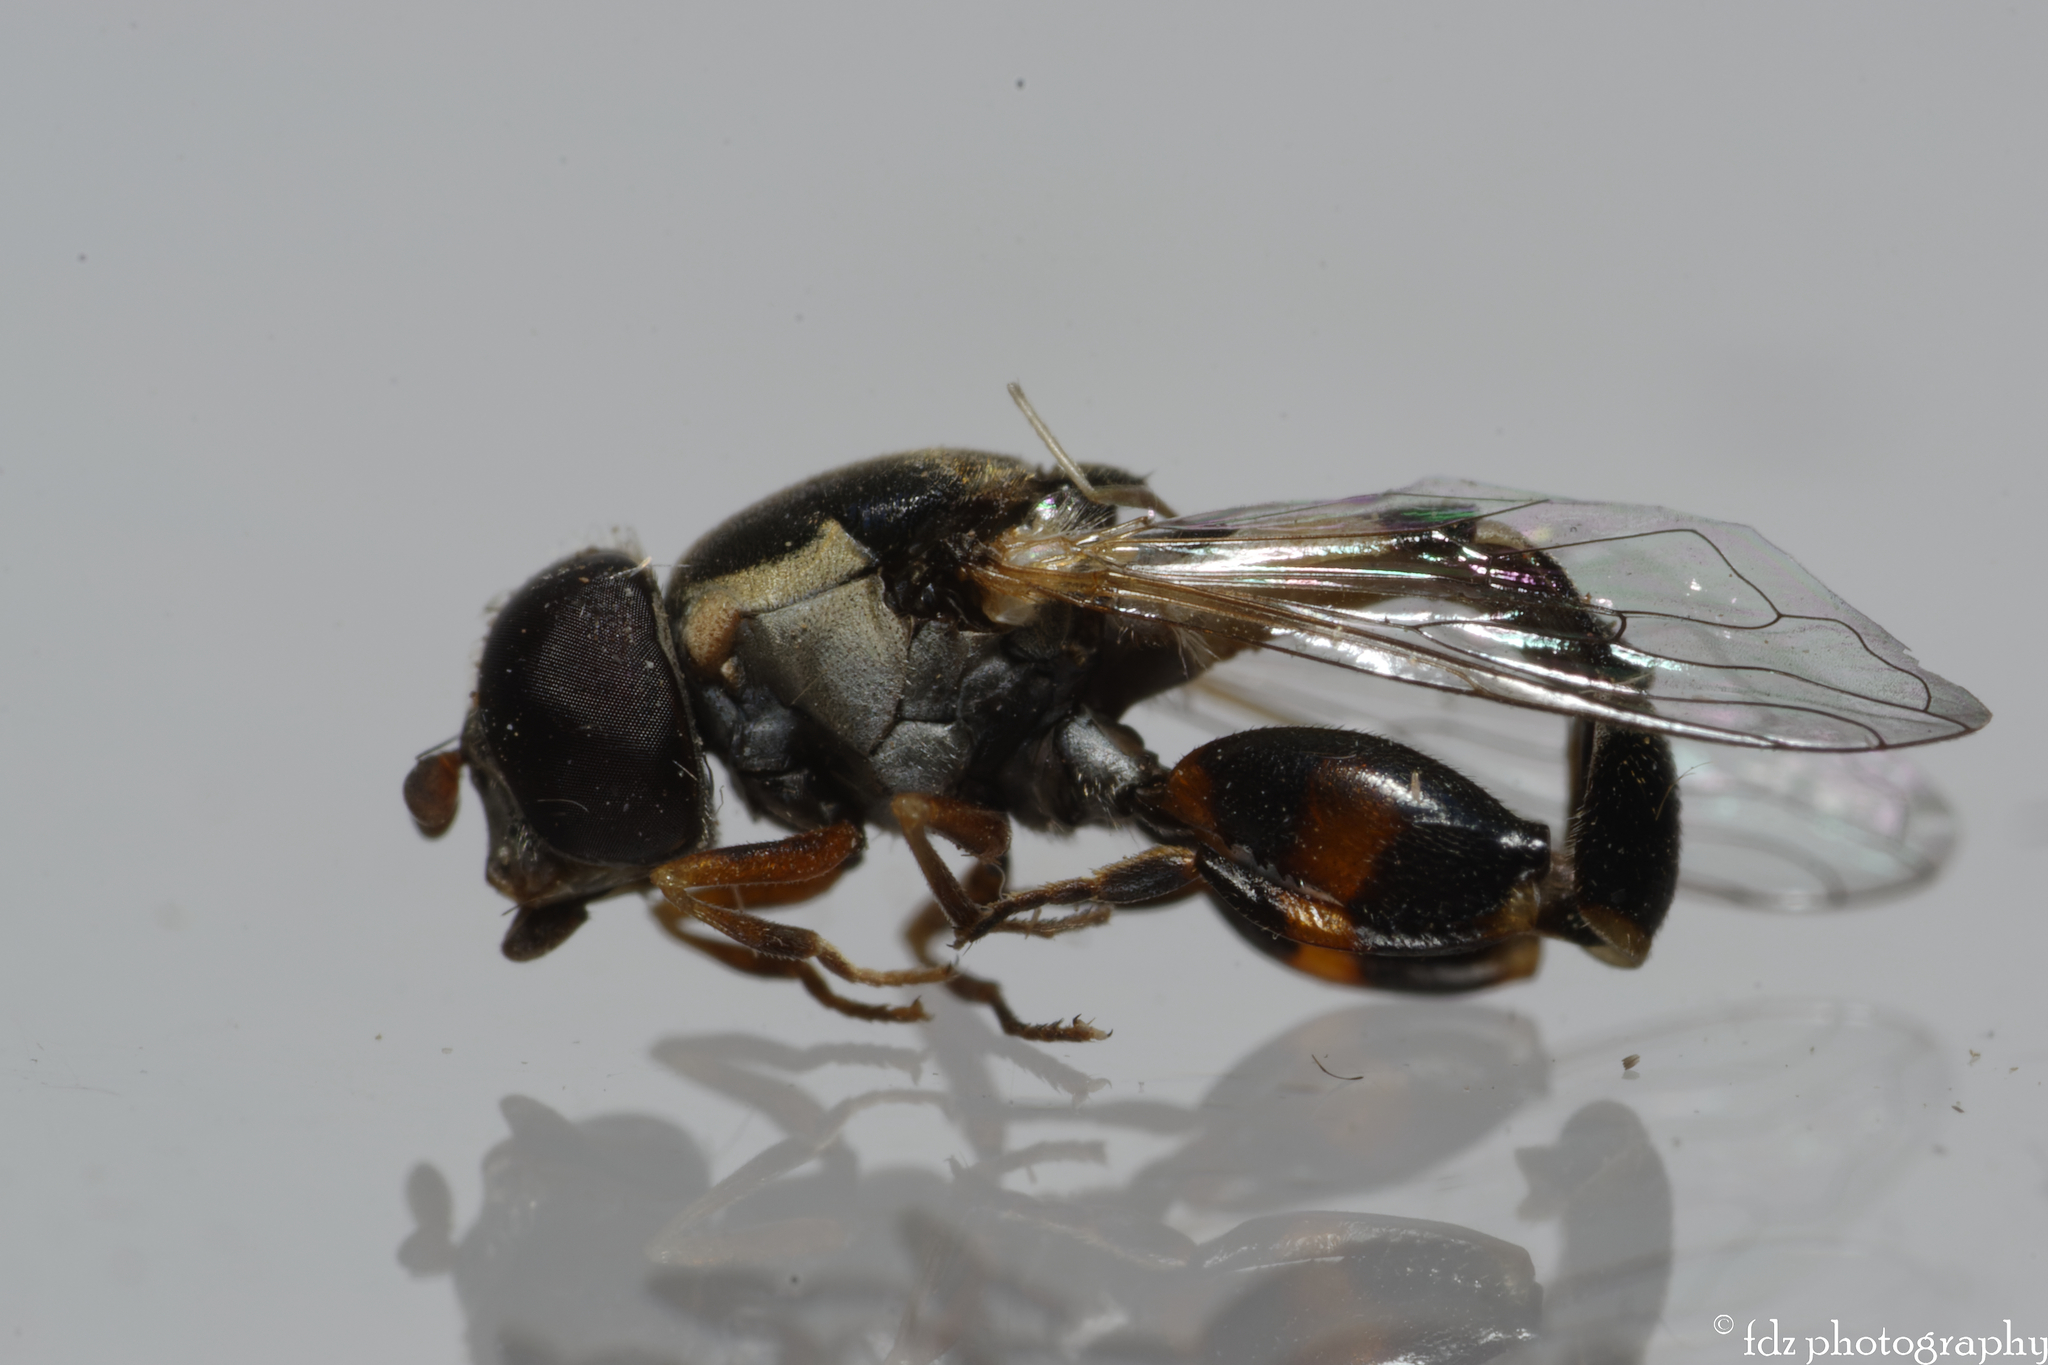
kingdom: Animalia
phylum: Arthropoda
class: Insecta
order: Diptera
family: Syrphidae
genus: Syritta
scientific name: Syritta pipiens
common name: Hover fly
